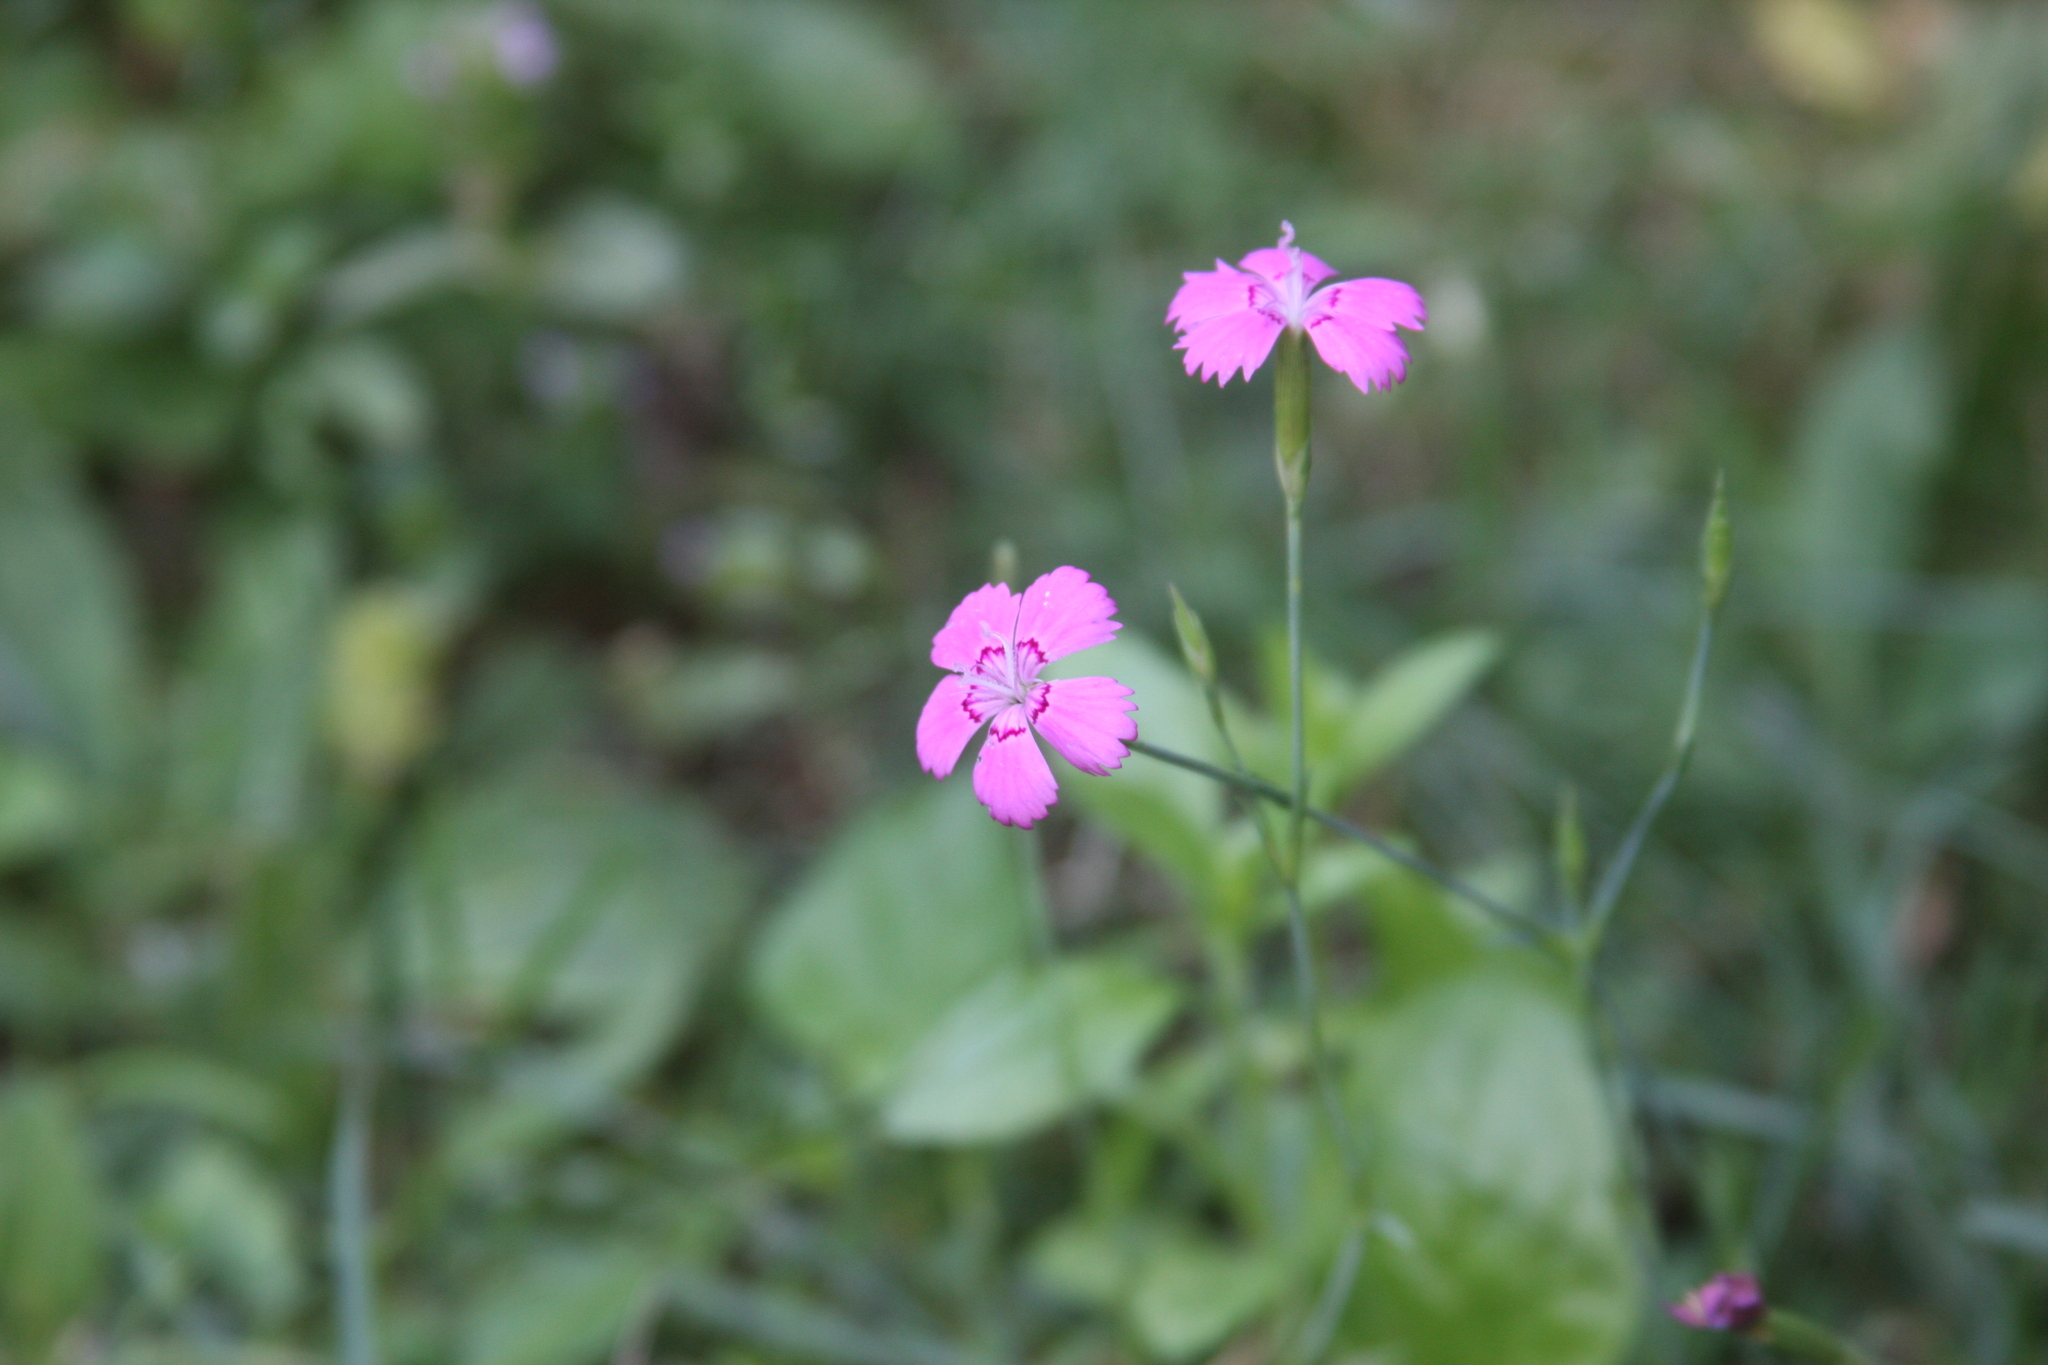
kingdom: Plantae
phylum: Tracheophyta
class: Magnoliopsida
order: Caryophyllales
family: Caryophyllaceae
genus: Dianthus
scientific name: Dianthus deltoides
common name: Maiden pink
